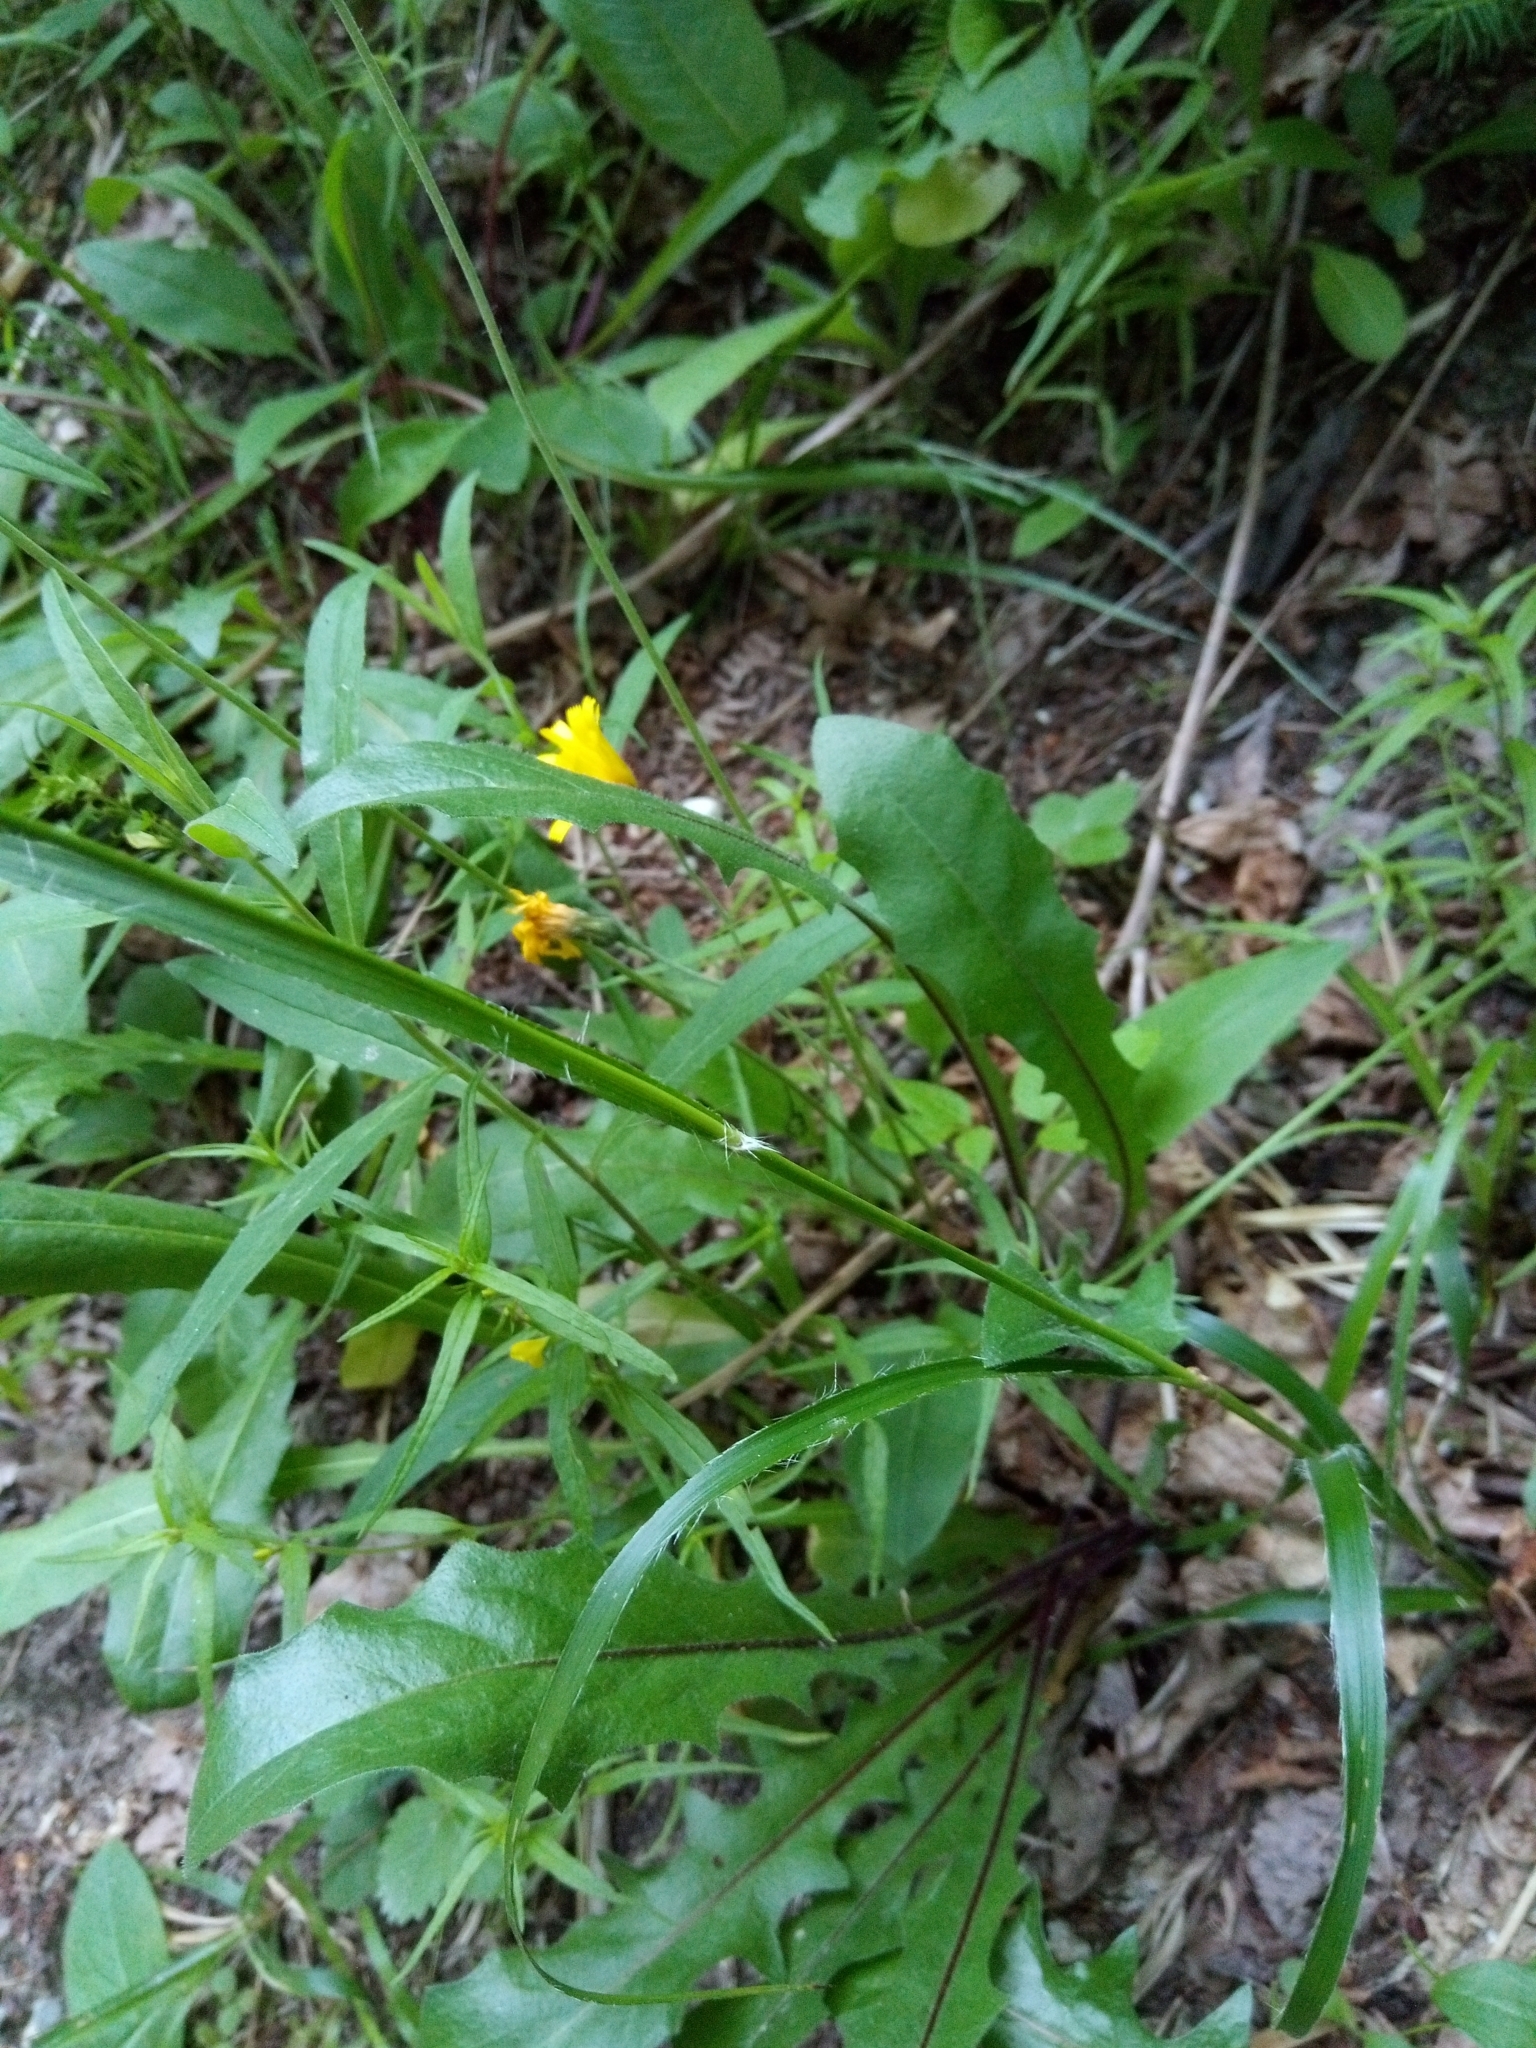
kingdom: Plantae
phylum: Tracheophyta
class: Liliopsida
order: Poales
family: Juncaceae
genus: Luzula
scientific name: Luzula luzuloides
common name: White wood-rush
